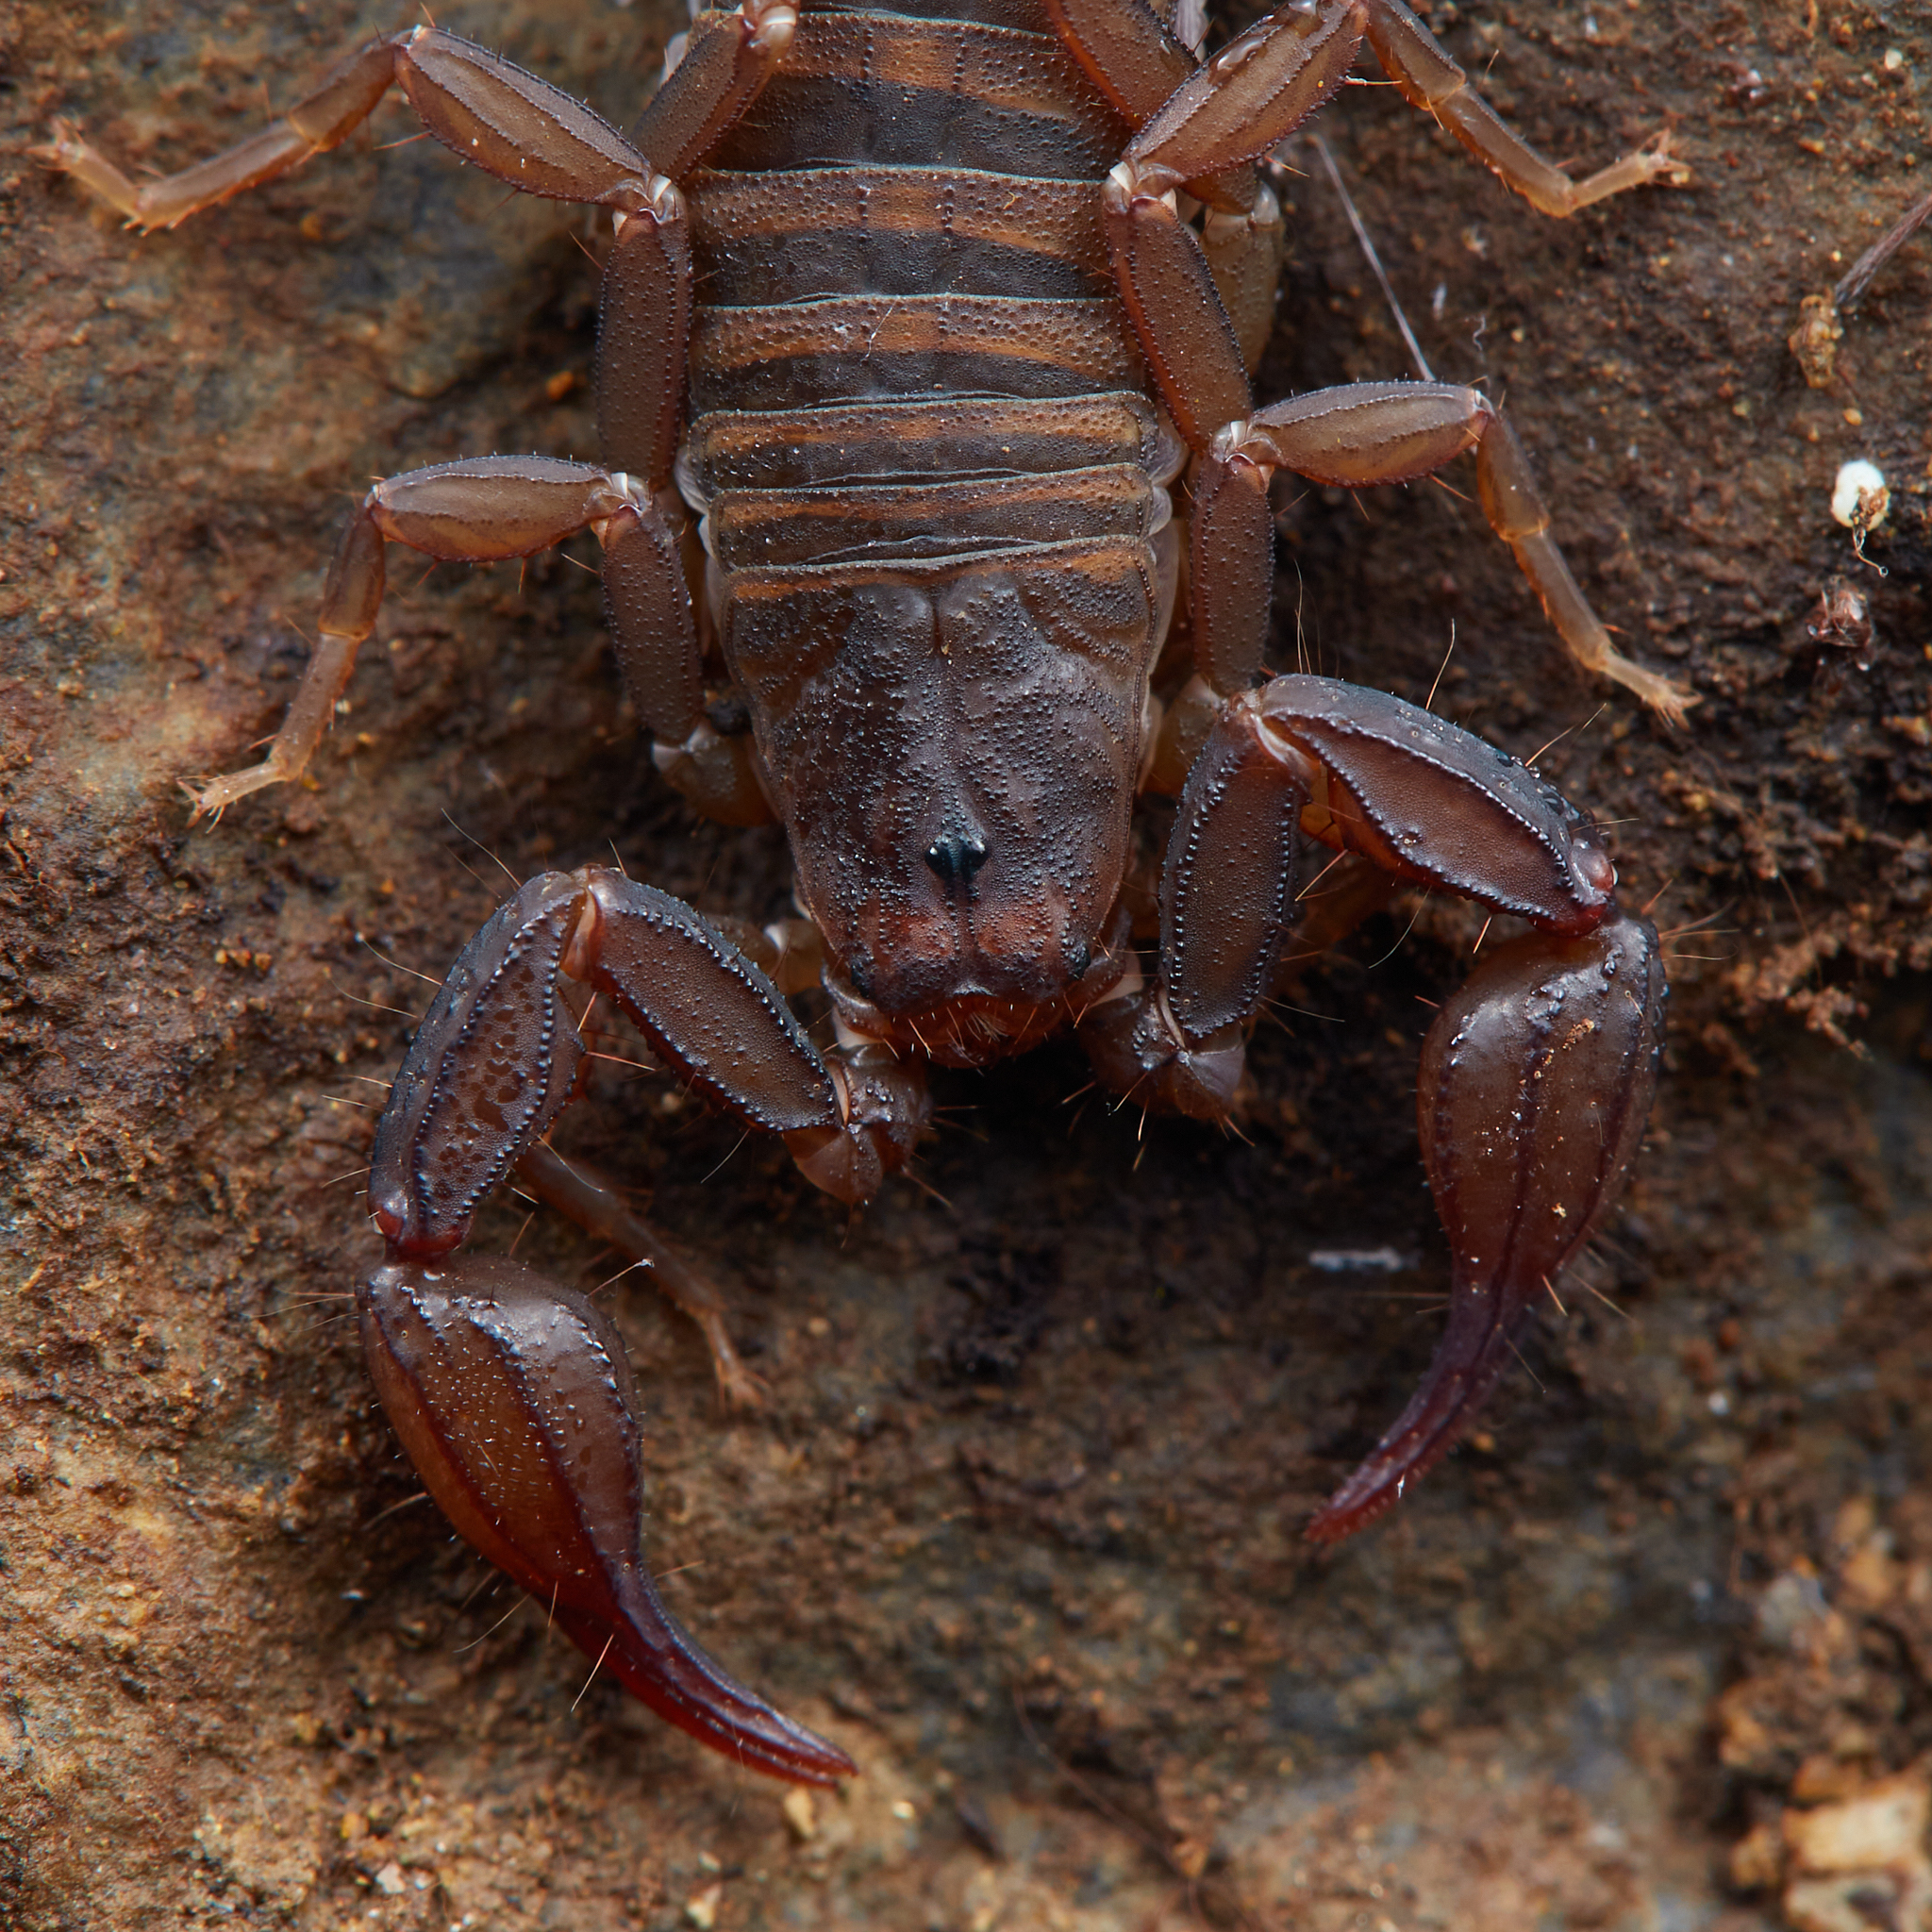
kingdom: Animalia
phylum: Arthropoda
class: Arachnida
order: Scorpiones
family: Vaejovidae
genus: Graemeloweus
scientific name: Graemeloweus iviei
